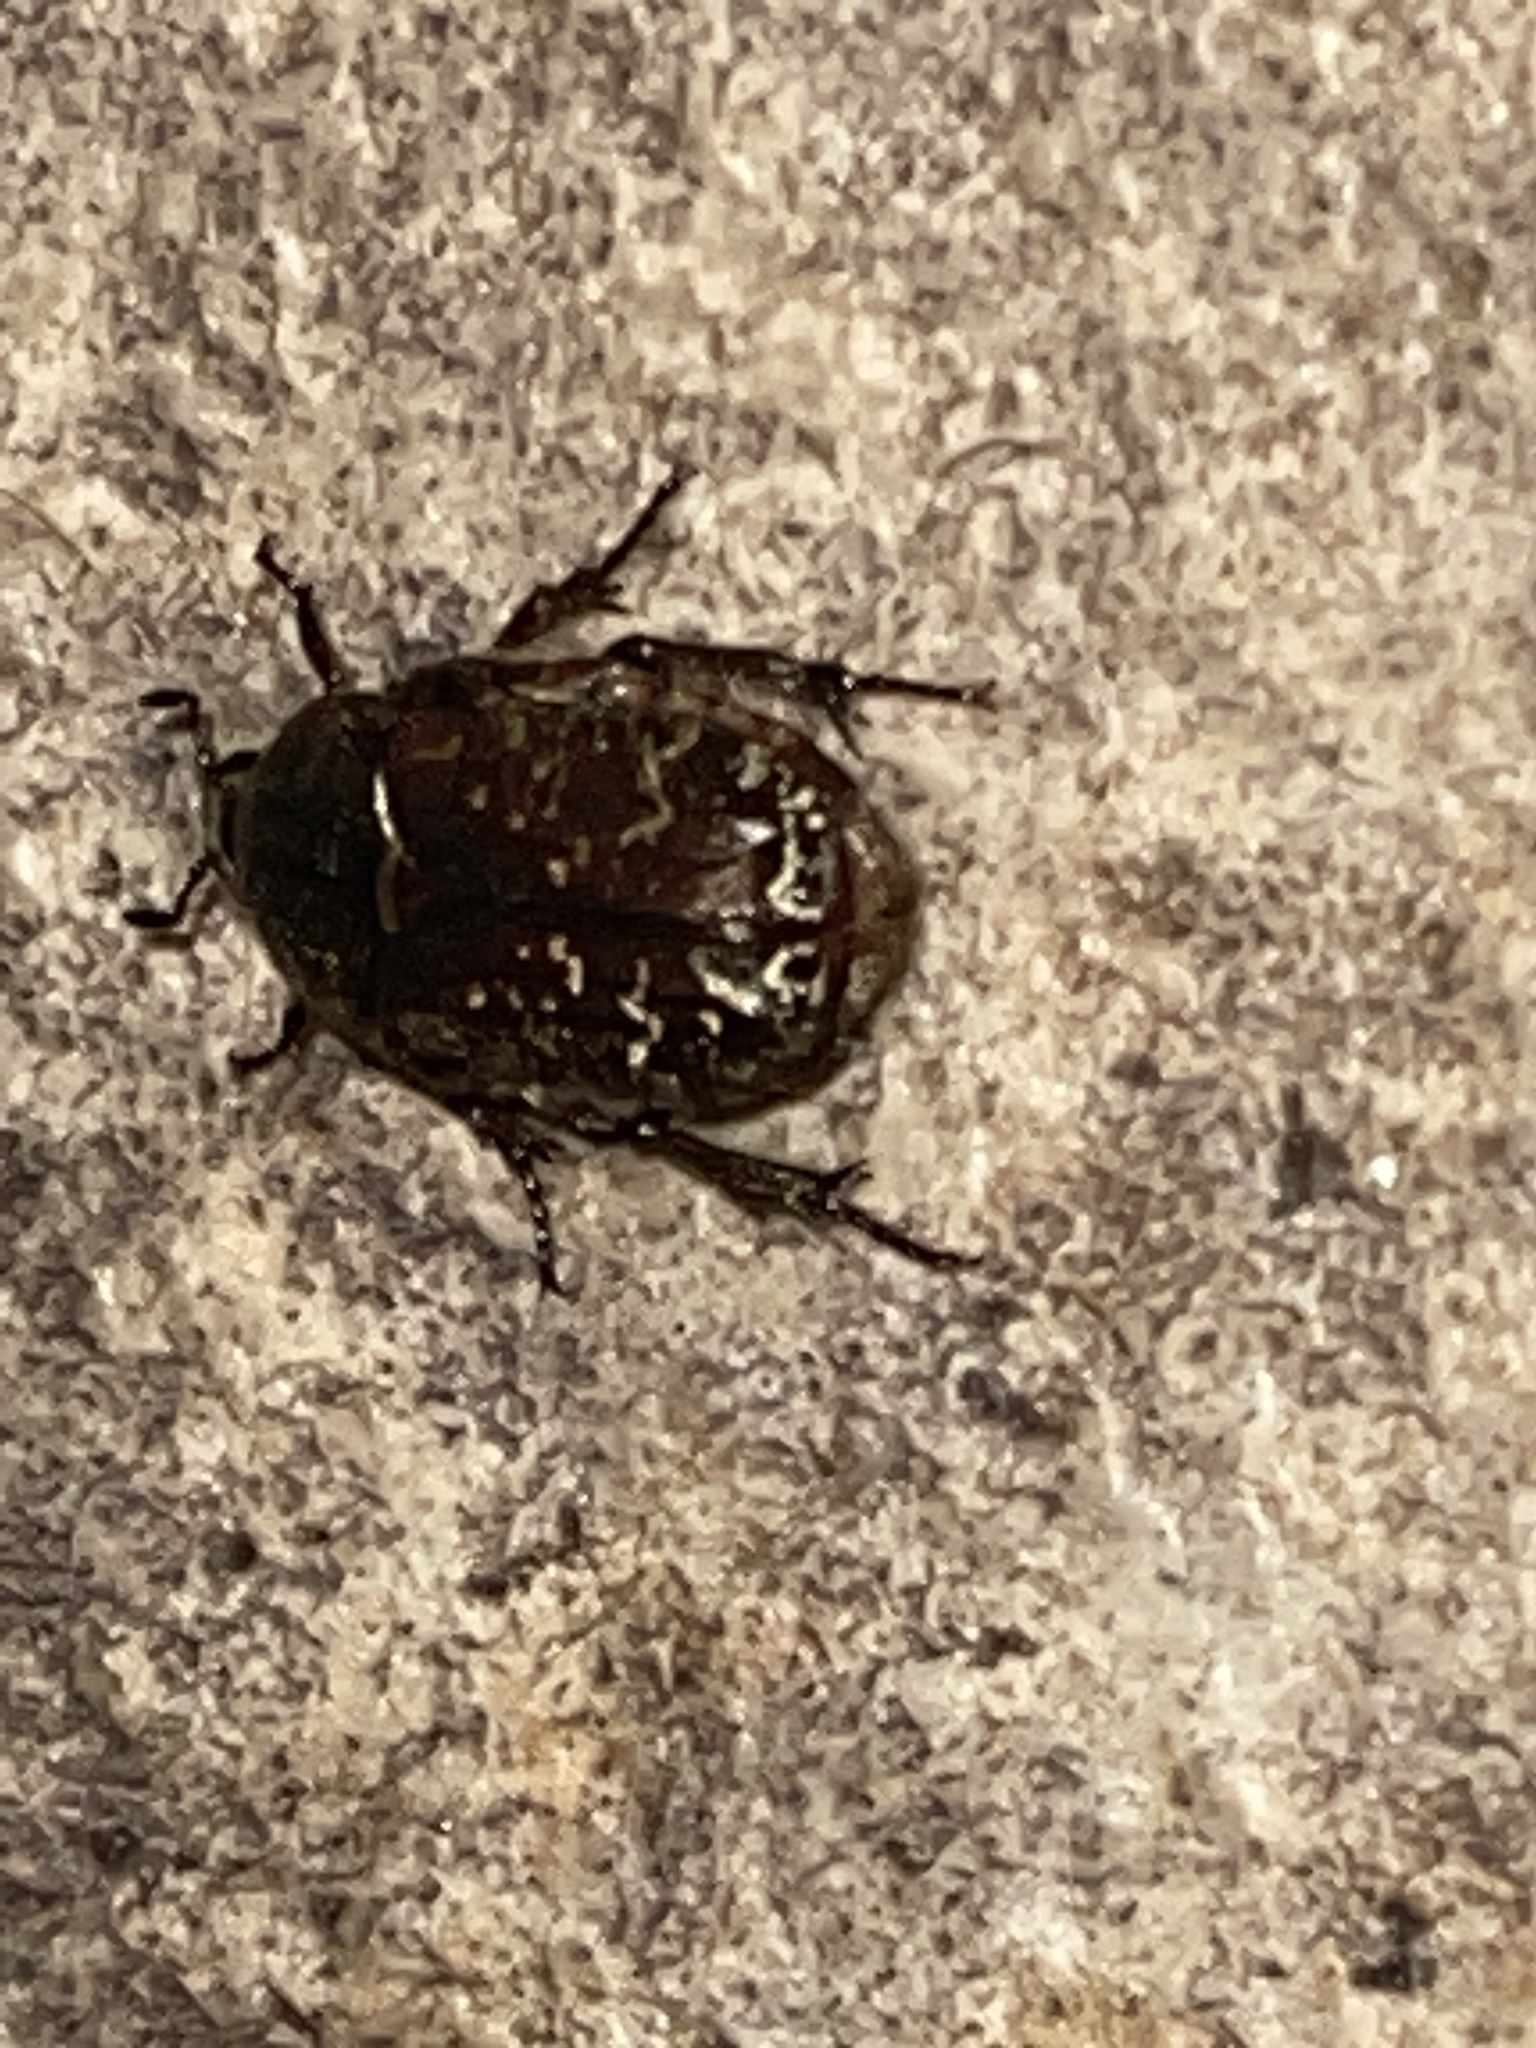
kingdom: Animalia
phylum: Arthropoda
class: Insecta
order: Coleoptera
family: Scarabaeidae
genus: Euphoria
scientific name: Euphoria sepulcralis
